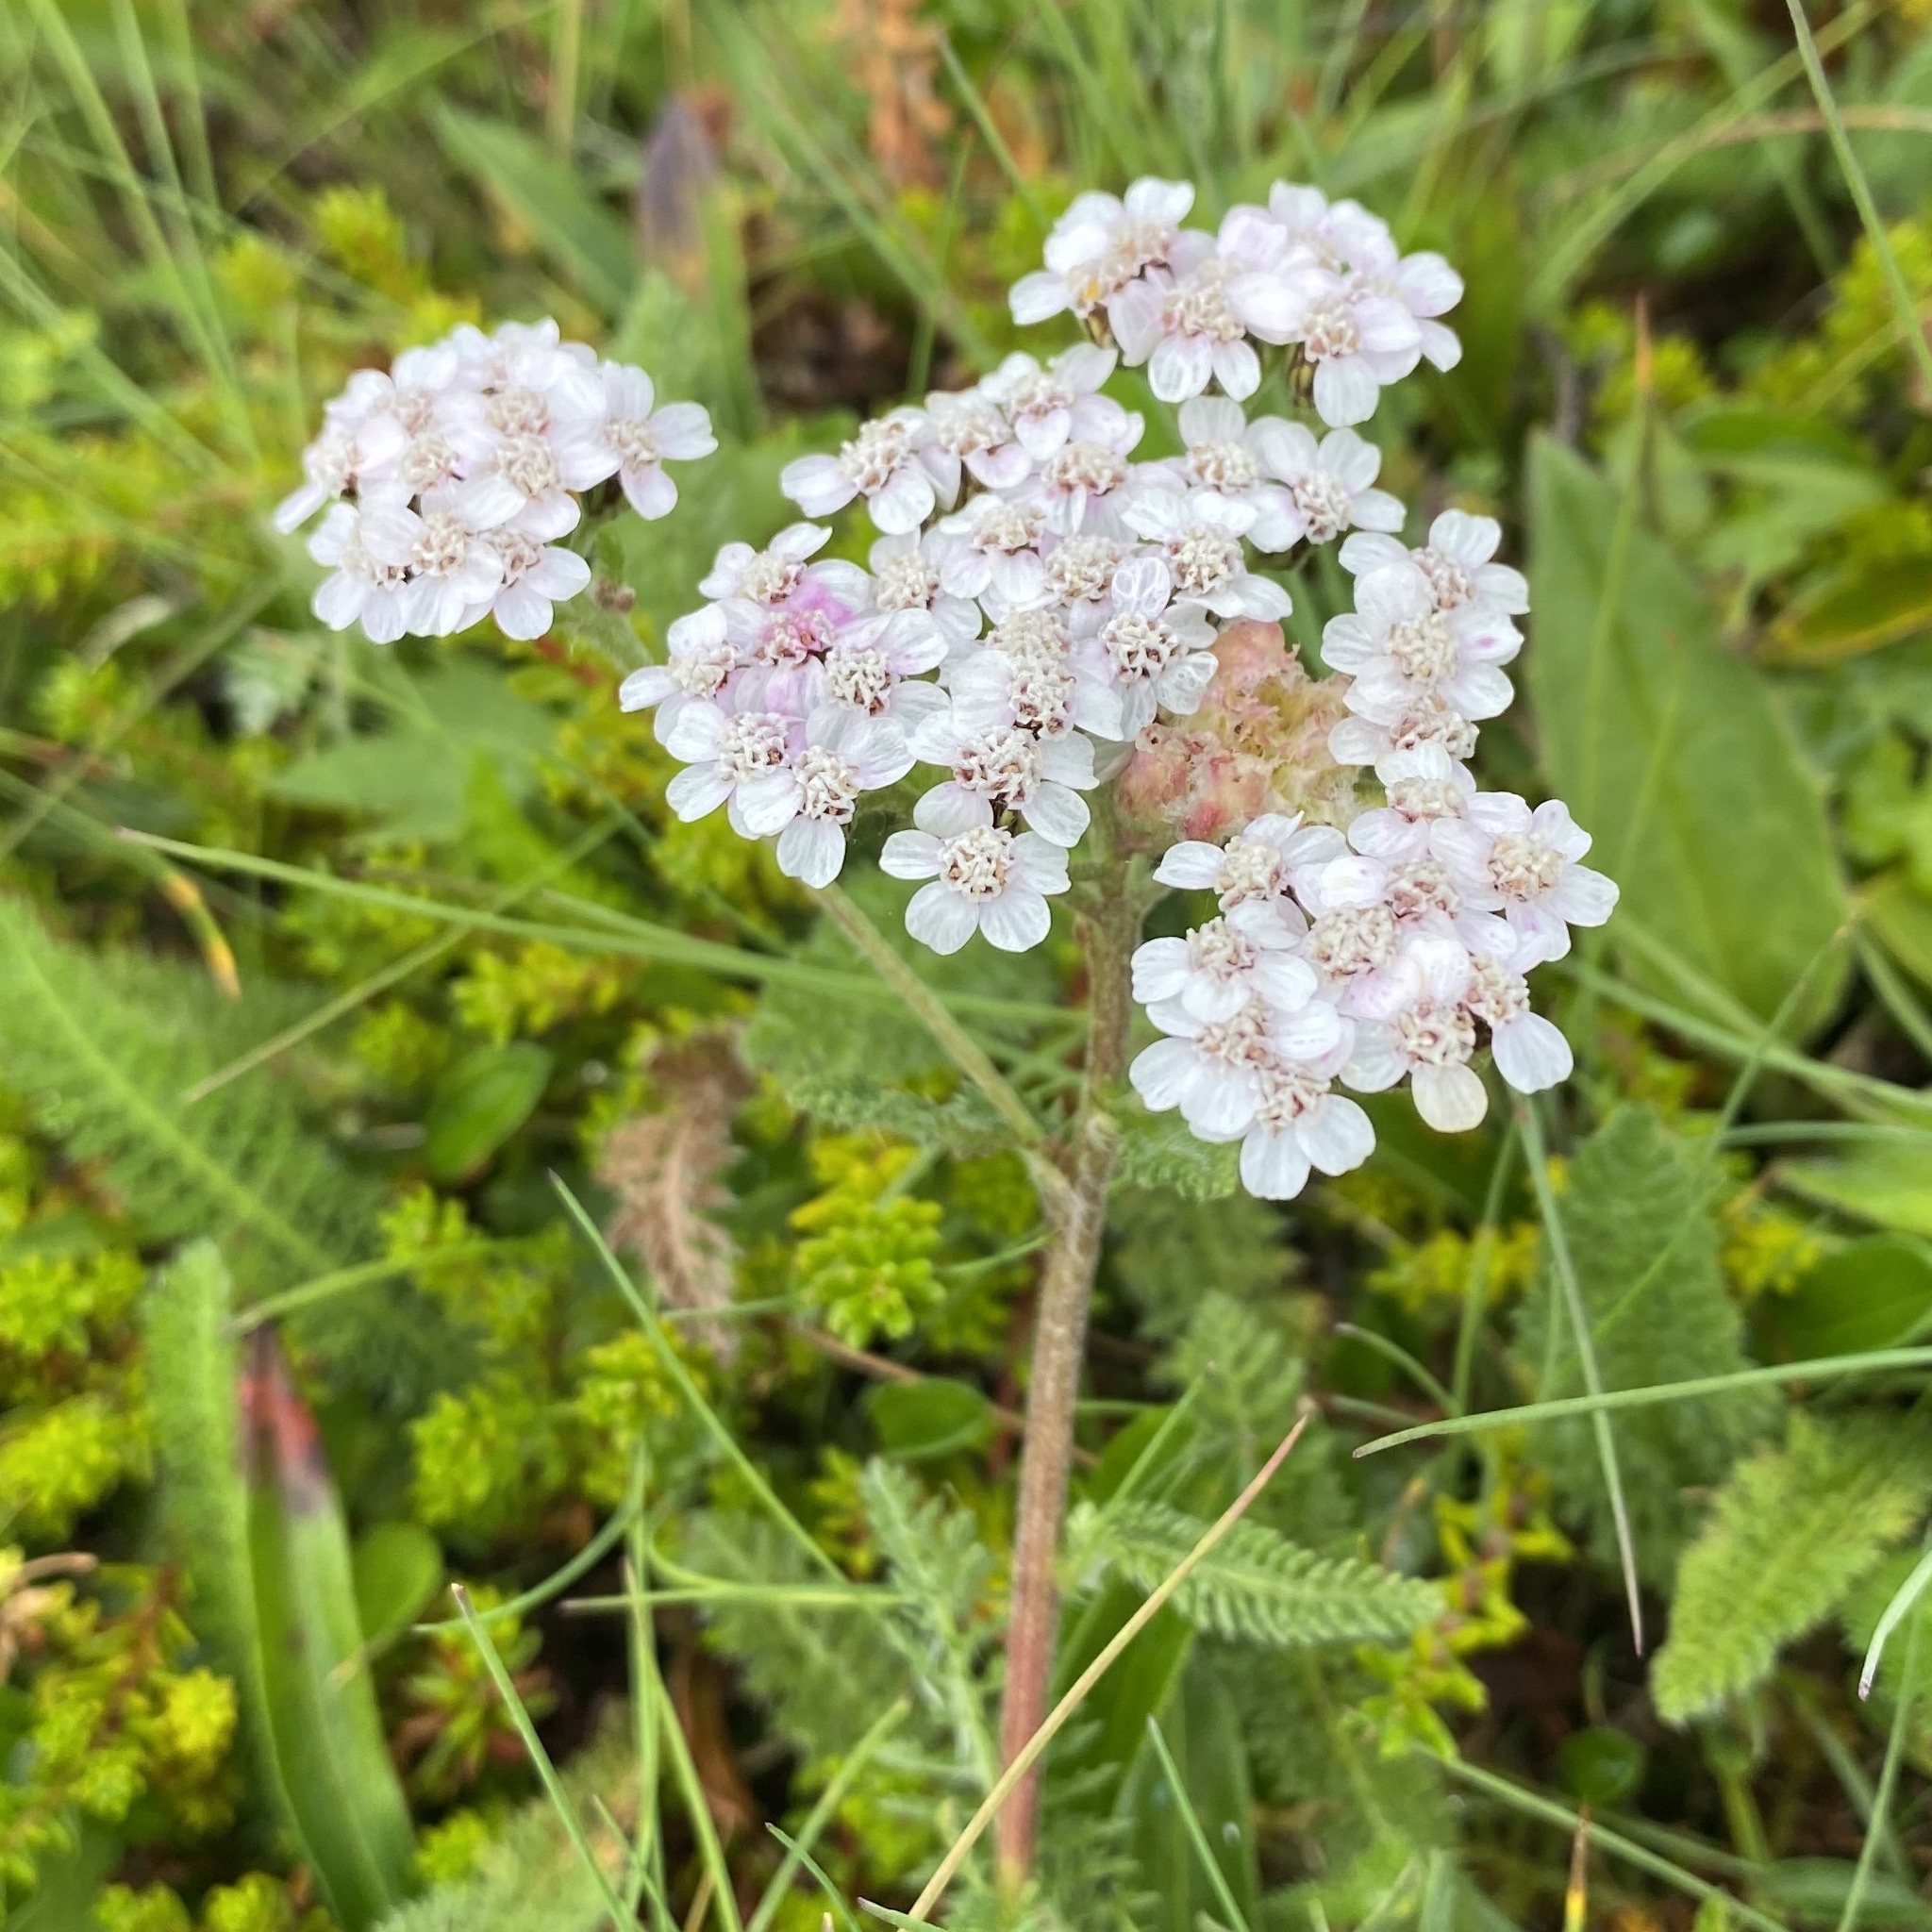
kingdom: Plantae
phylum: Tracheophyta
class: Magnoliopsida
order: Asterales
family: Asteraceae
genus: Achillea
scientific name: Achillea millefolium
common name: Yarrow
